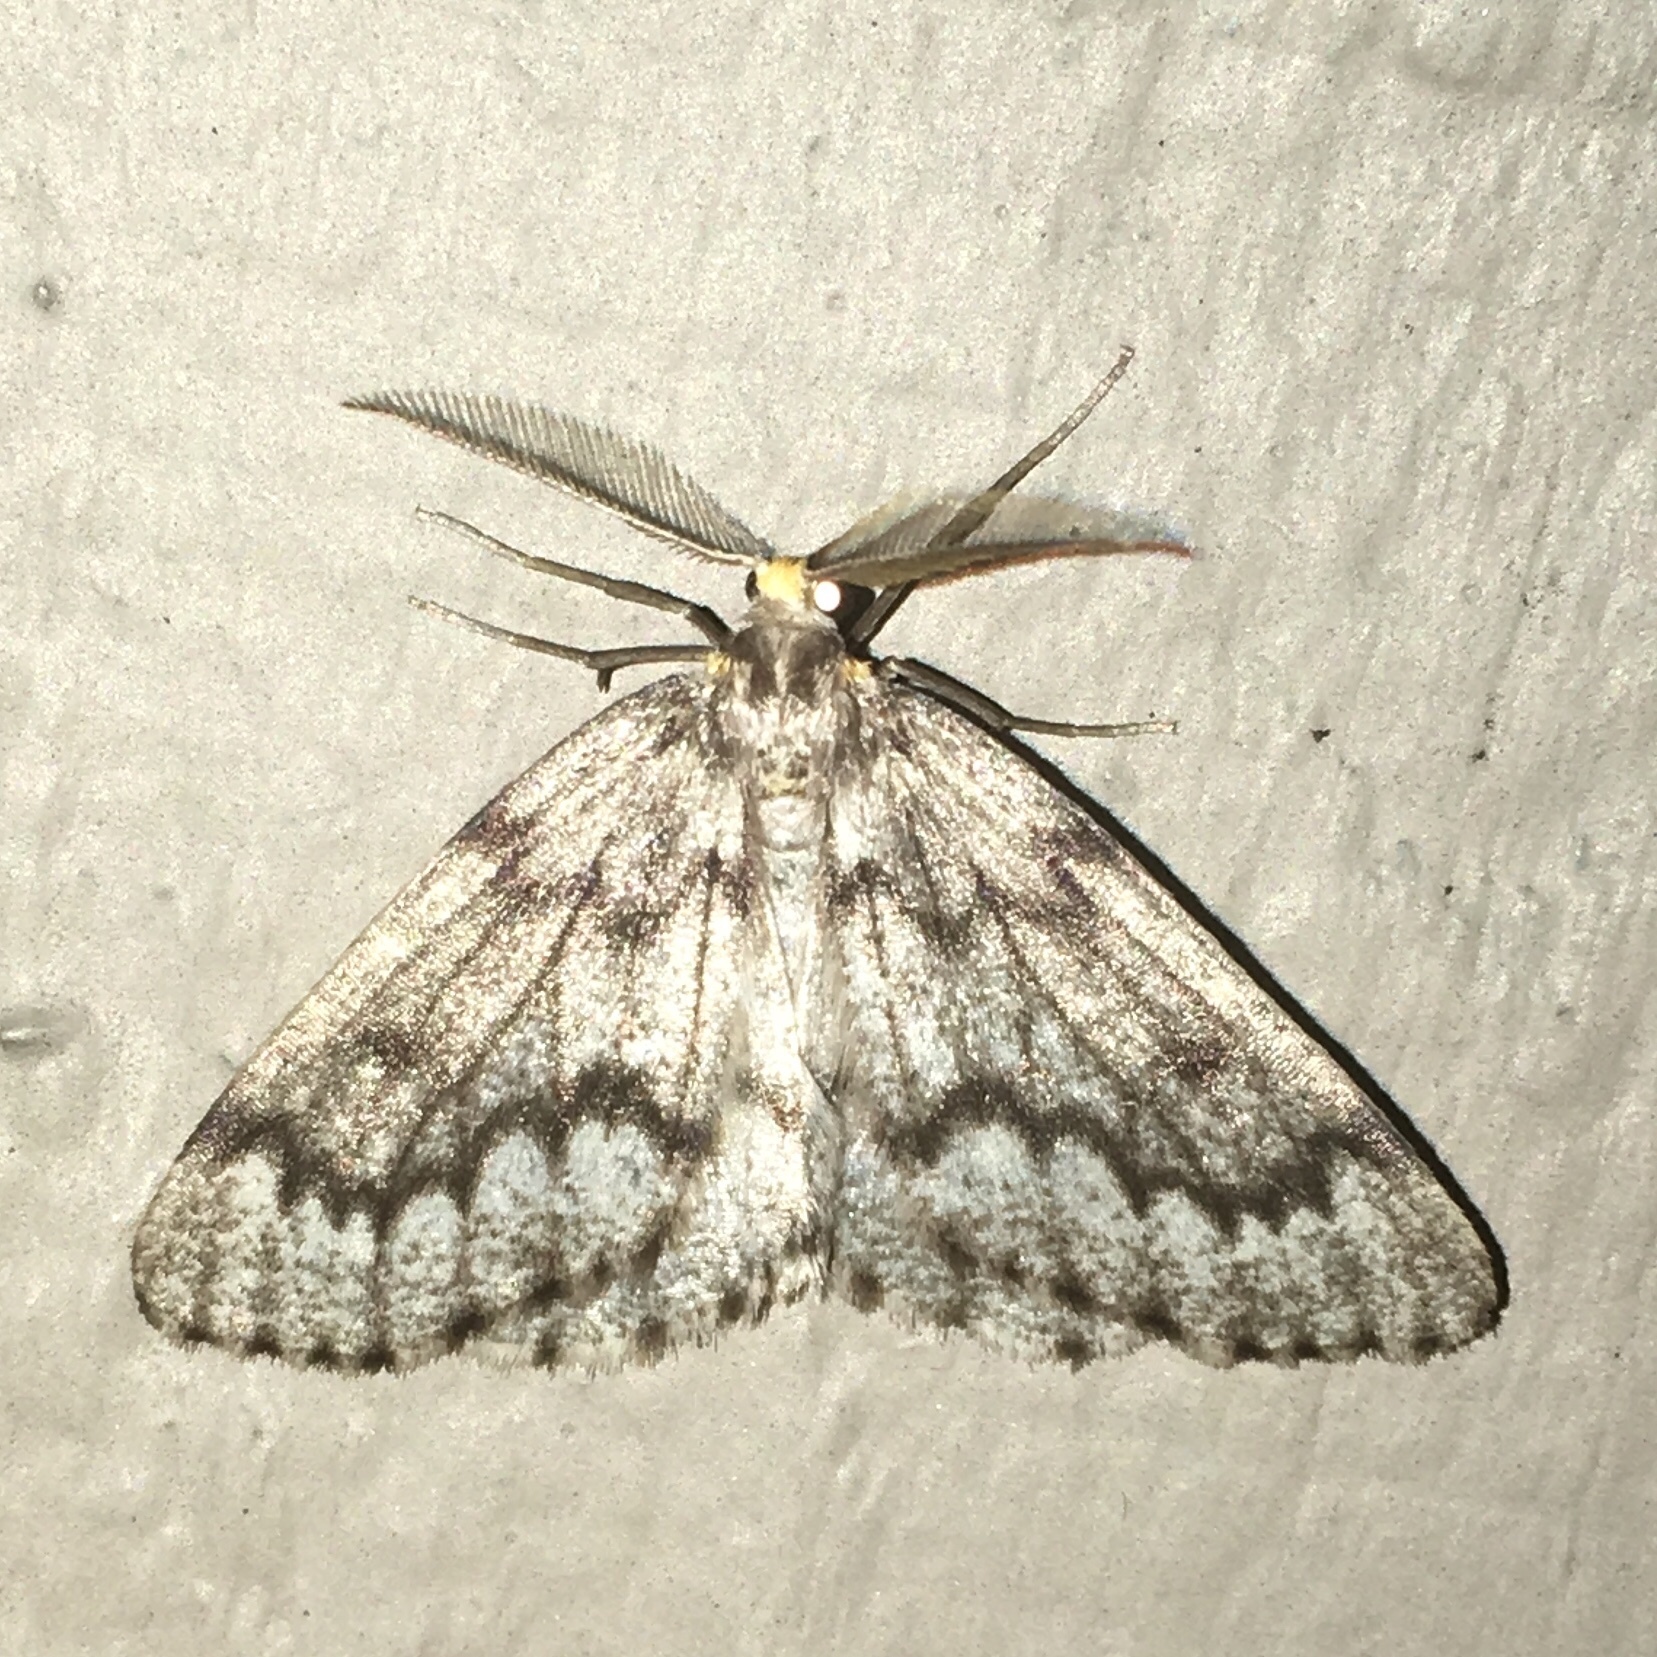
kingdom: Animalia
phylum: Arthropoda
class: Insecta
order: Lepidoptera
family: Geometridae
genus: Nepytia
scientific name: Nepytia canosaria
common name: False hemlock looper
